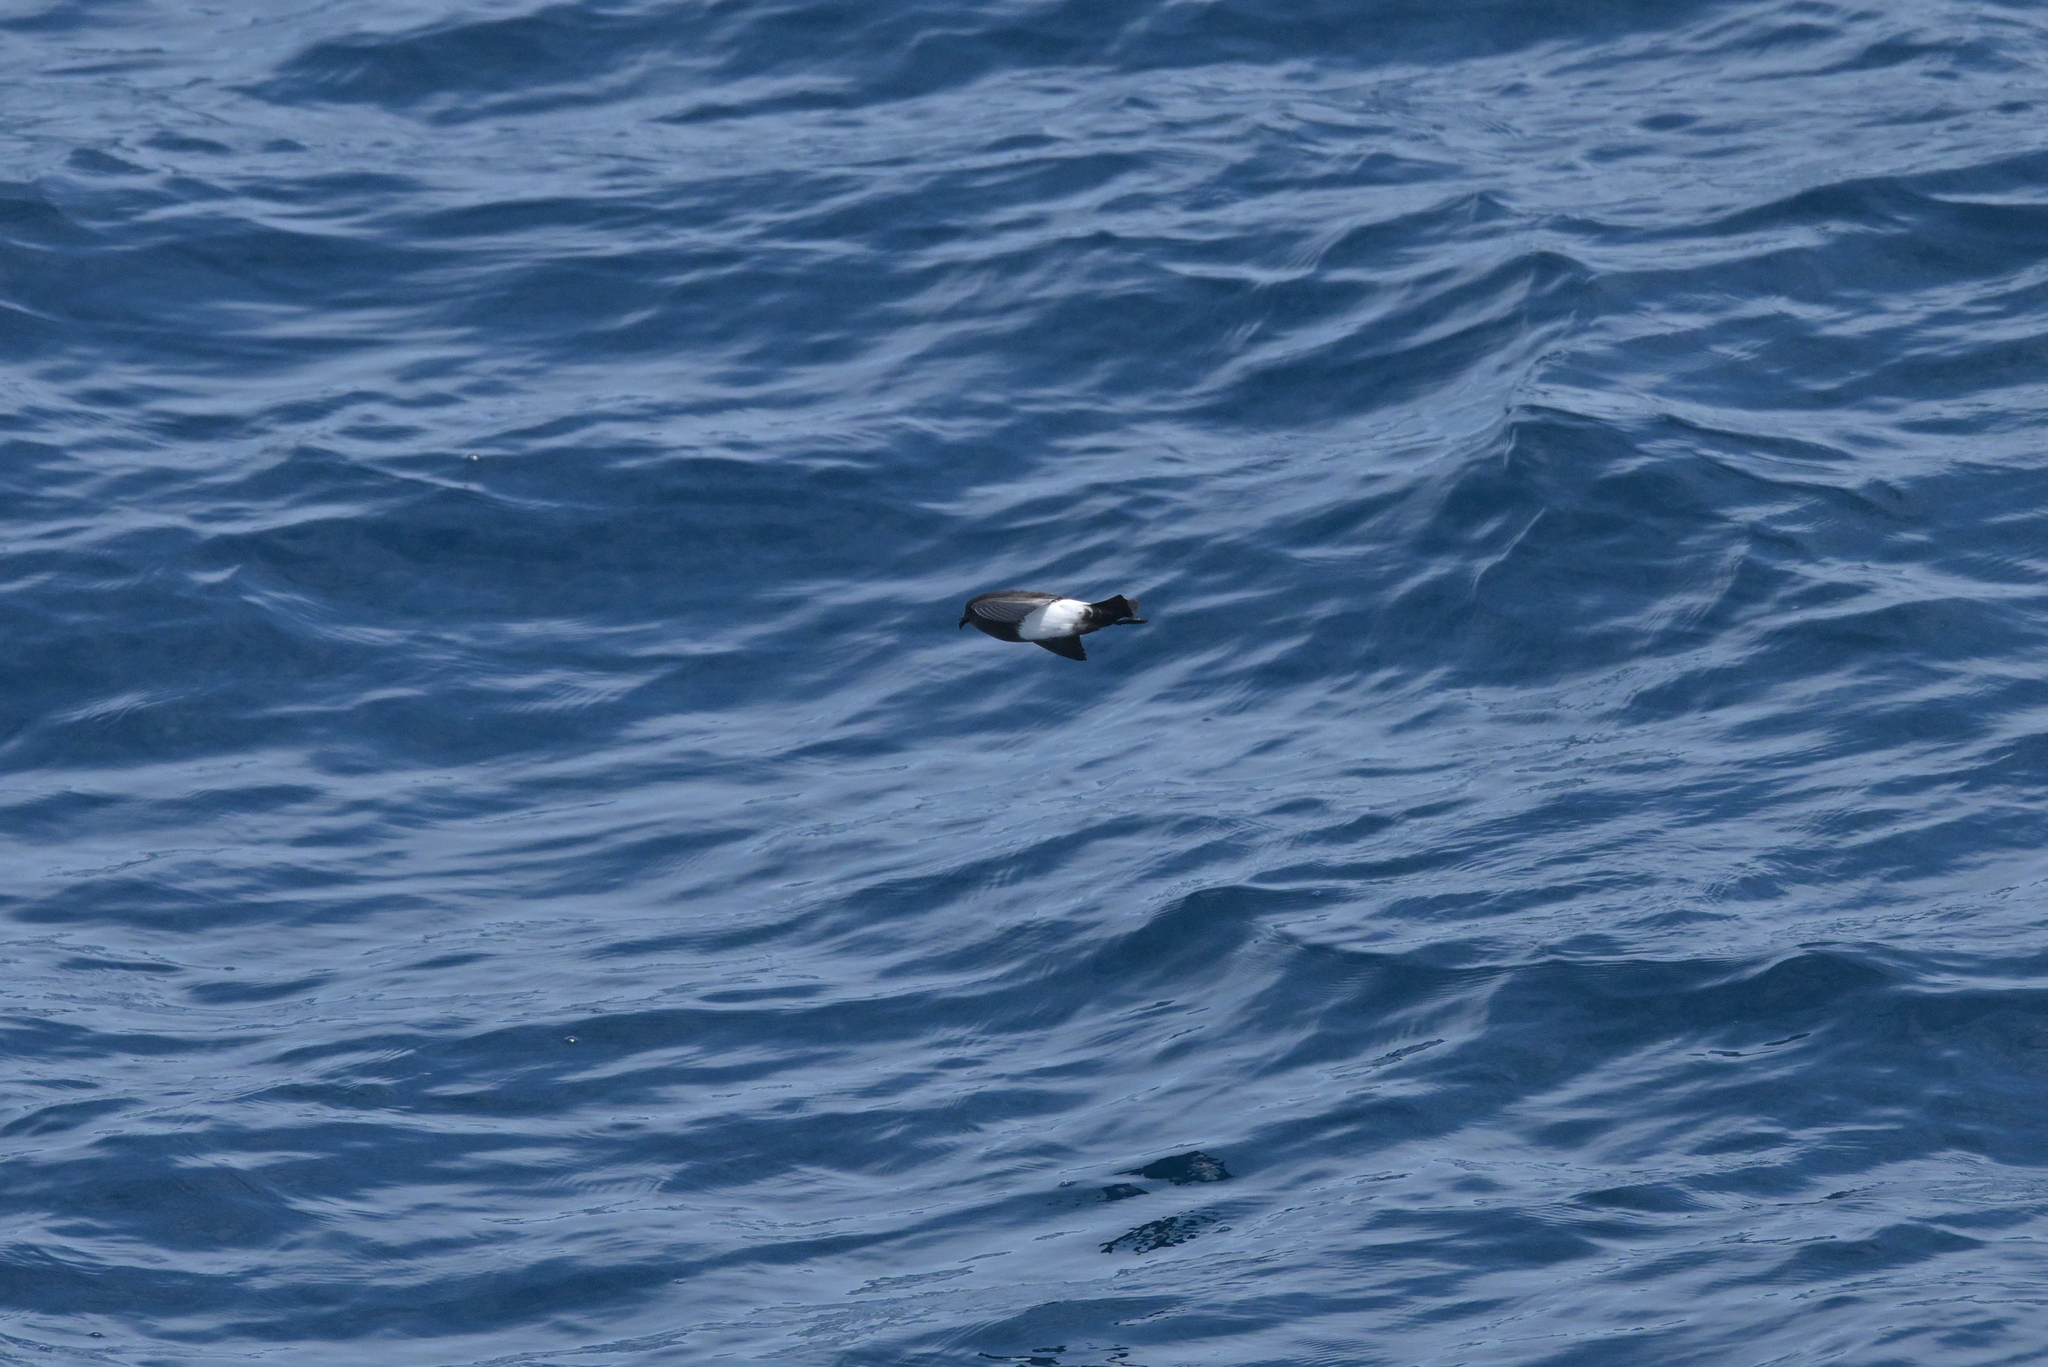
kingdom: Animalia
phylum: Chordata
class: Aves
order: Procellariiformes
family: Hydrobatidae
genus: Fregetta
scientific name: Fregetta tropica
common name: Black-bellied storm-petrel
